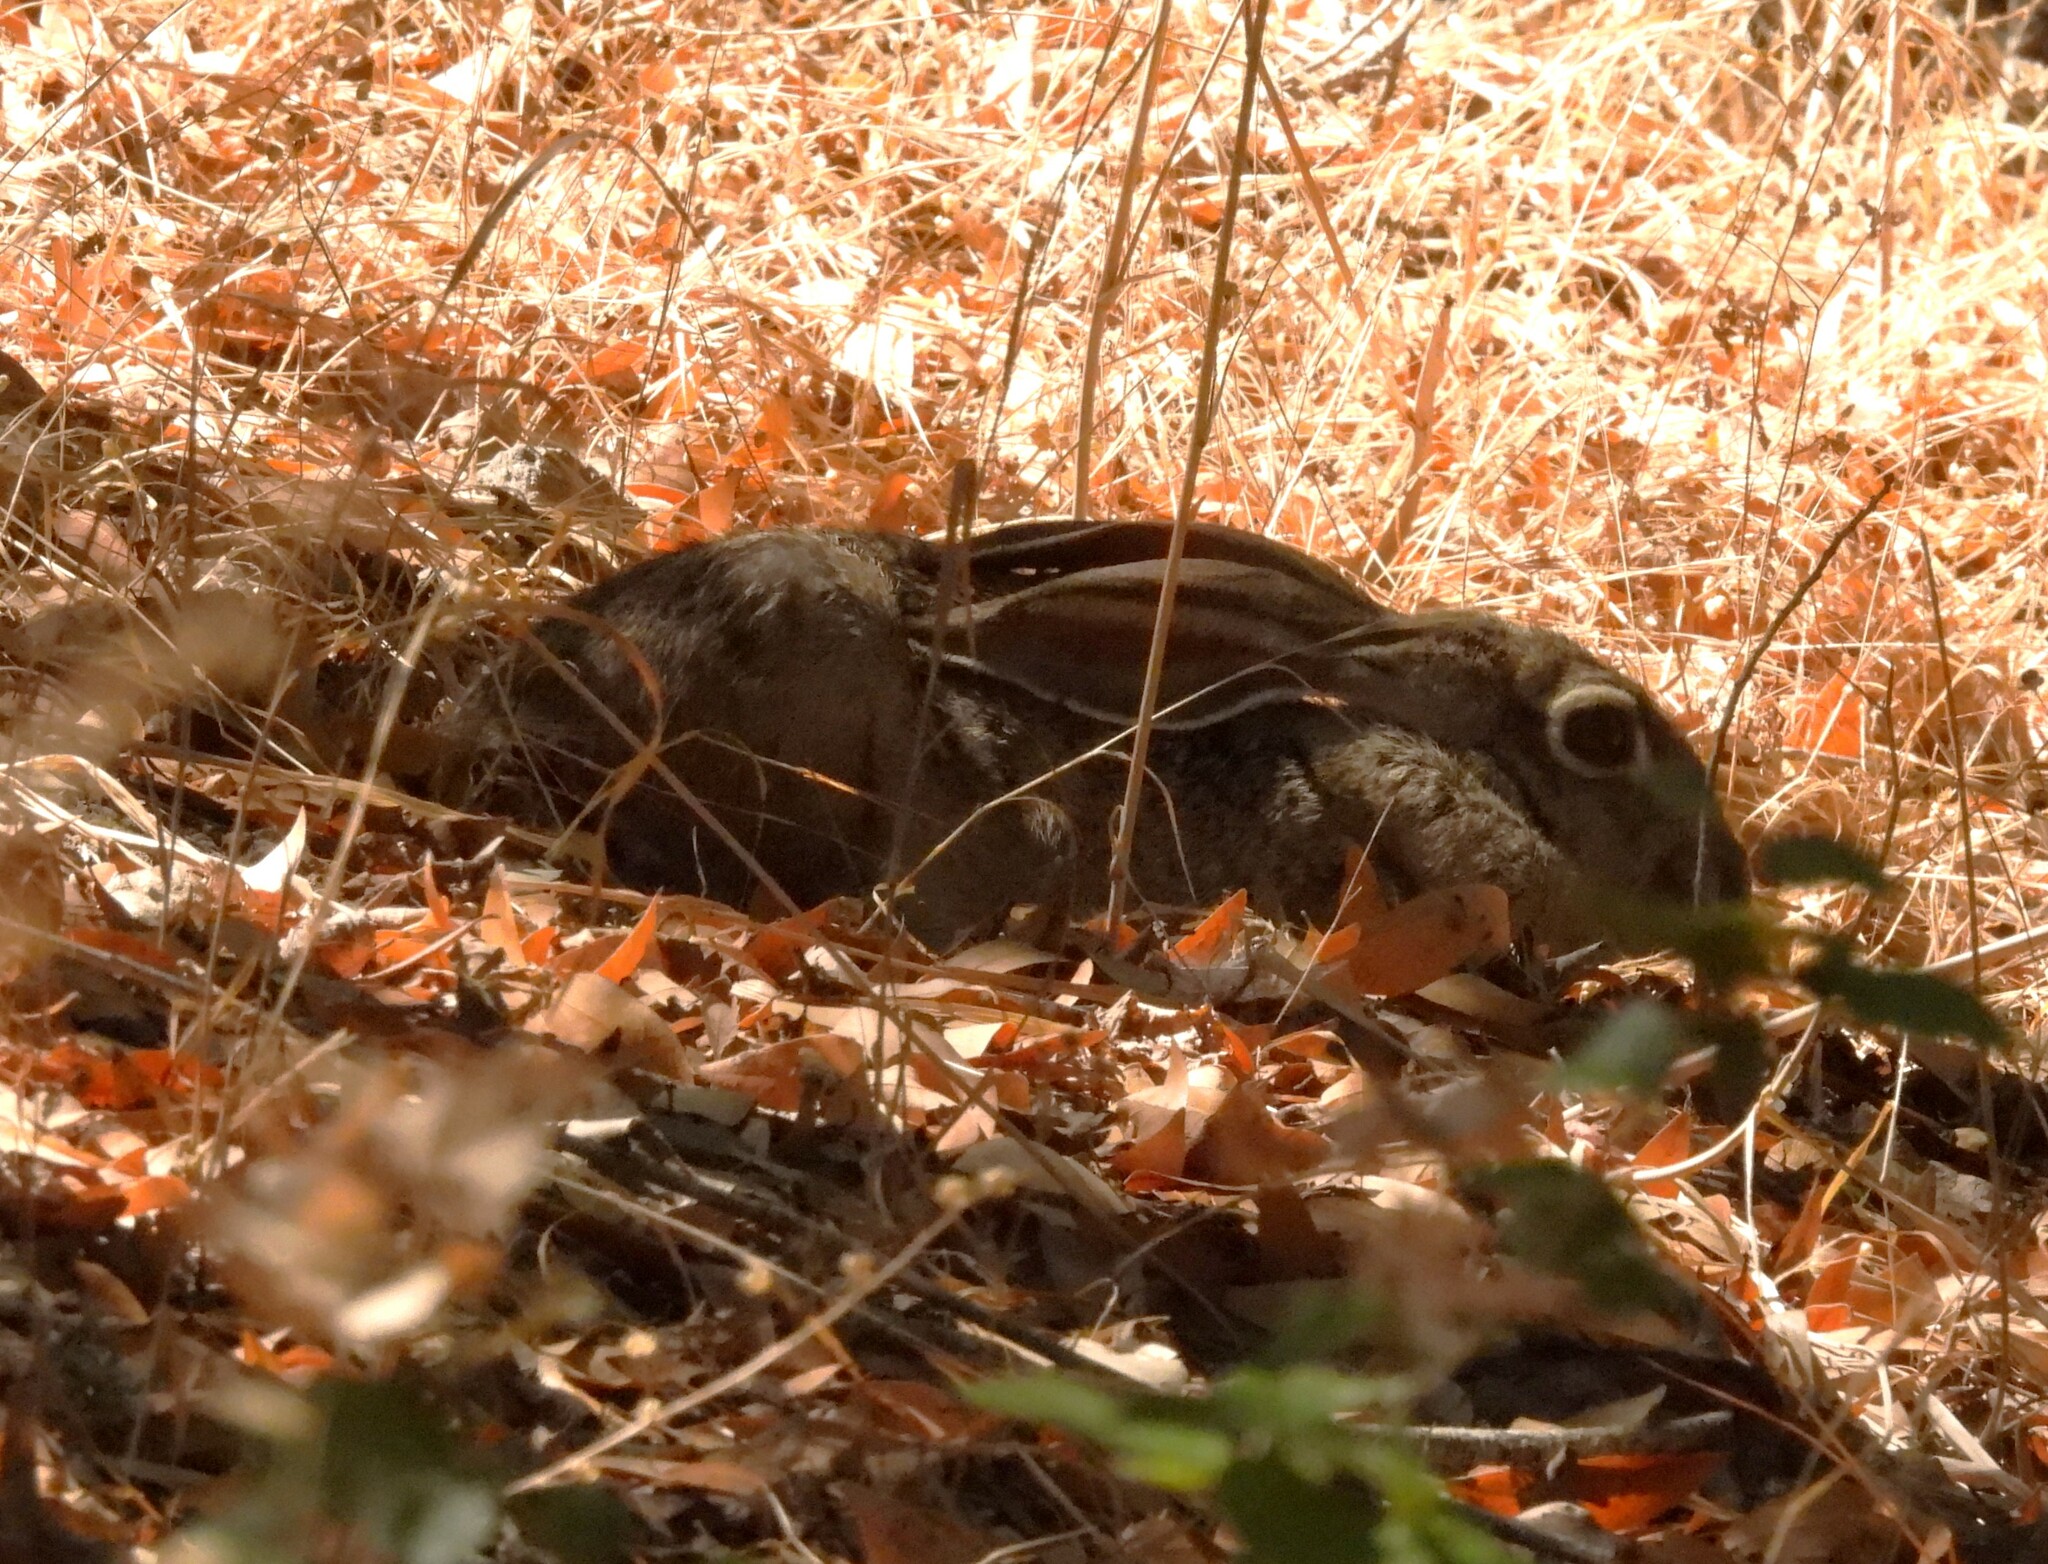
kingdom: Animalia
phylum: Chordata
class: Mammalia
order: Lagomorpha
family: Leporidae
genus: Lepus
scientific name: Lepus californicus
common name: Black-tailed jackrabbit
